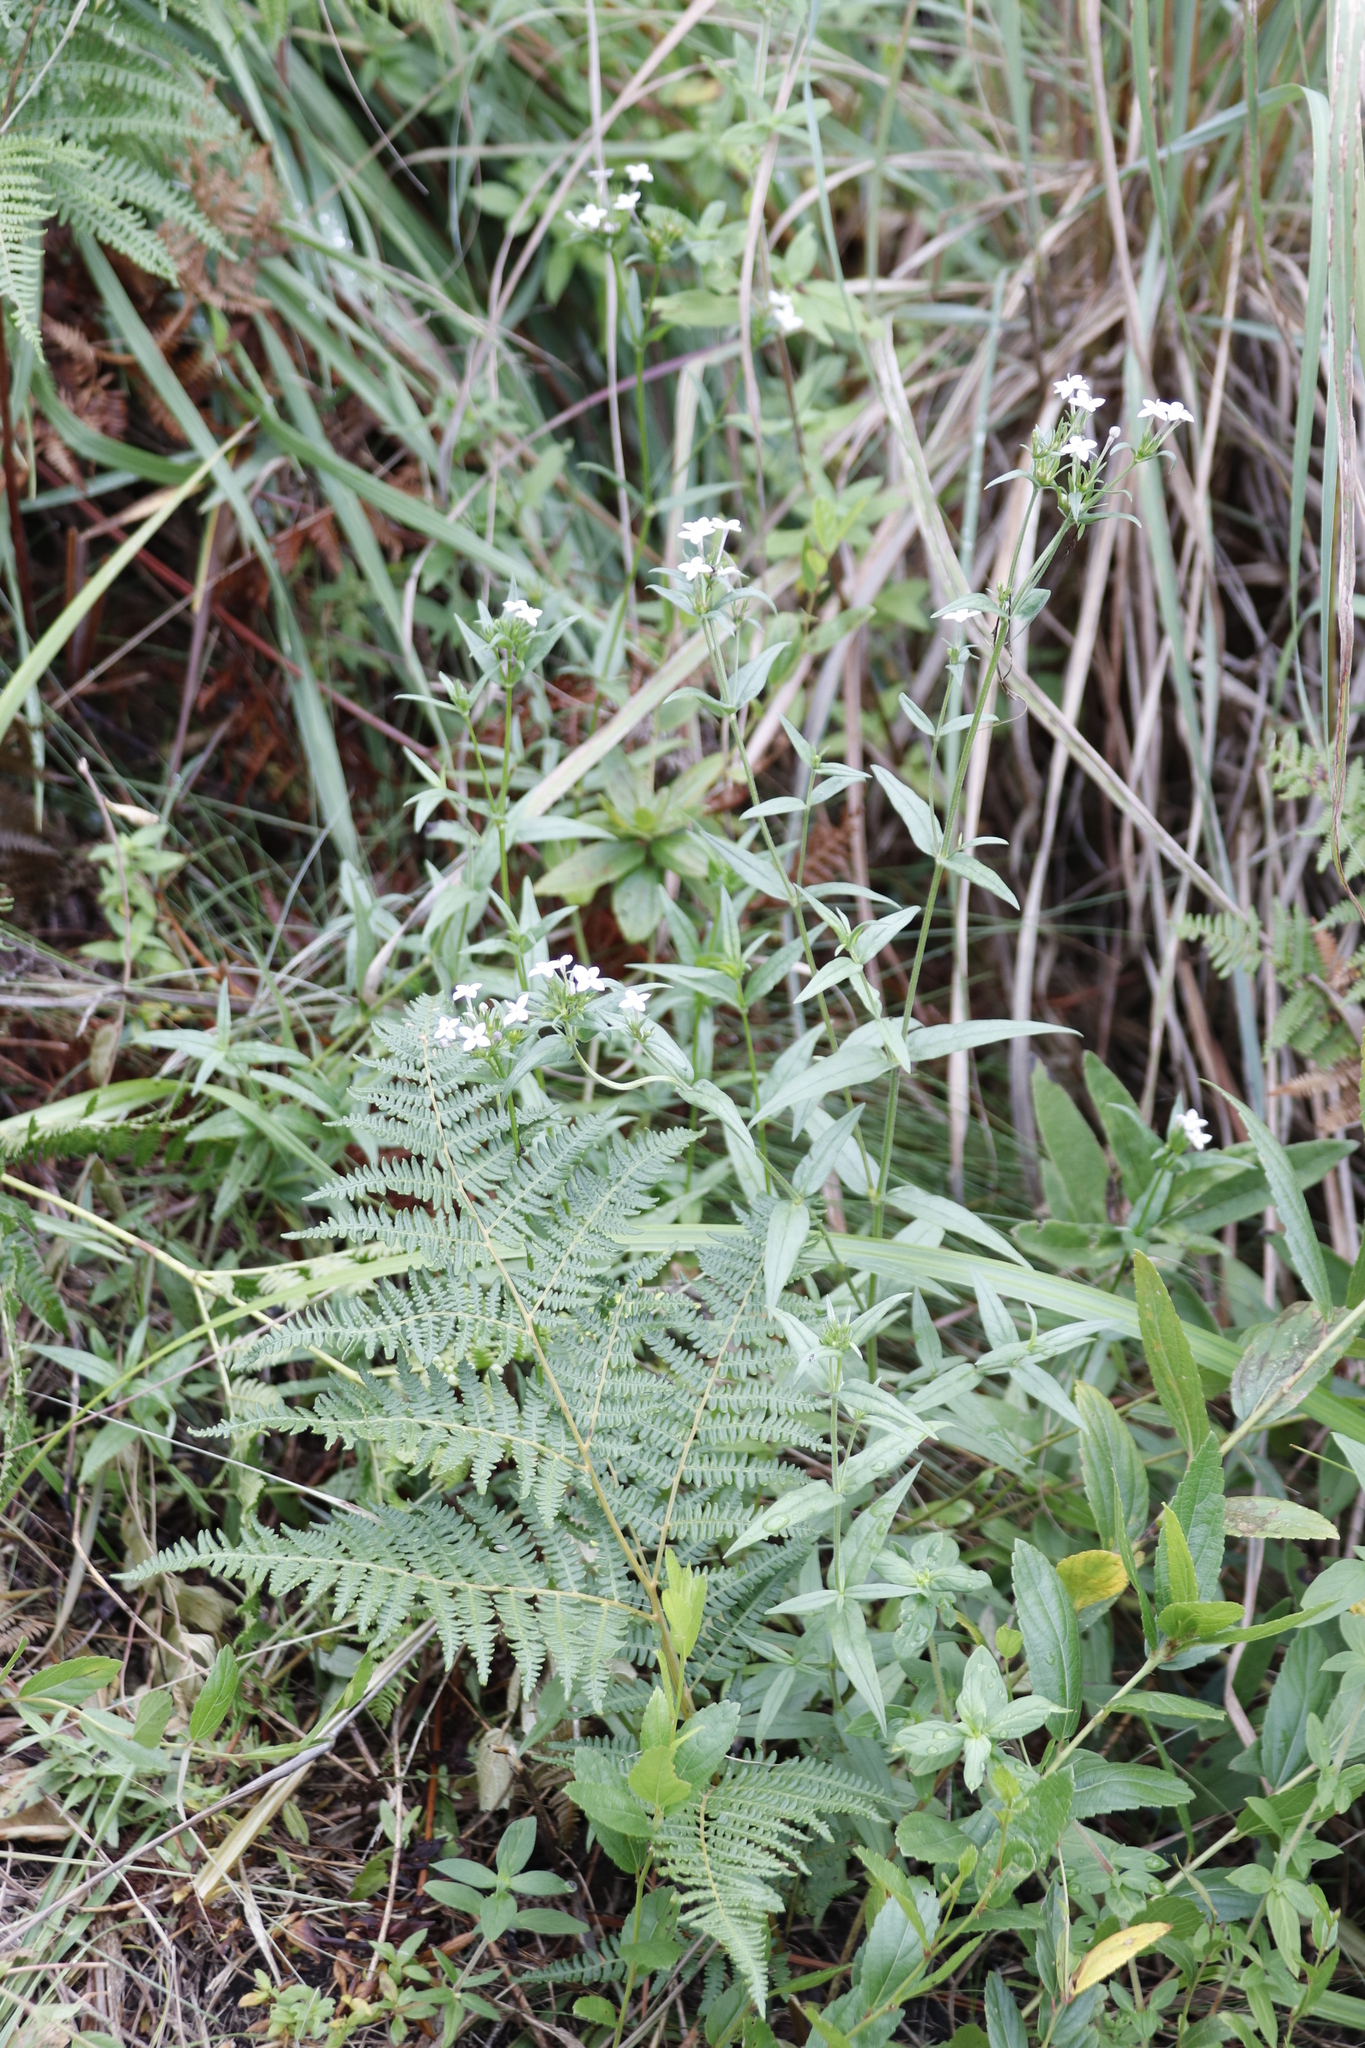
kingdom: Plantae
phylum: Tracheophyta
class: Magnoliopsida
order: Gentianales
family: Rubiaceae
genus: Conostomium
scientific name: Conostomium natalense
